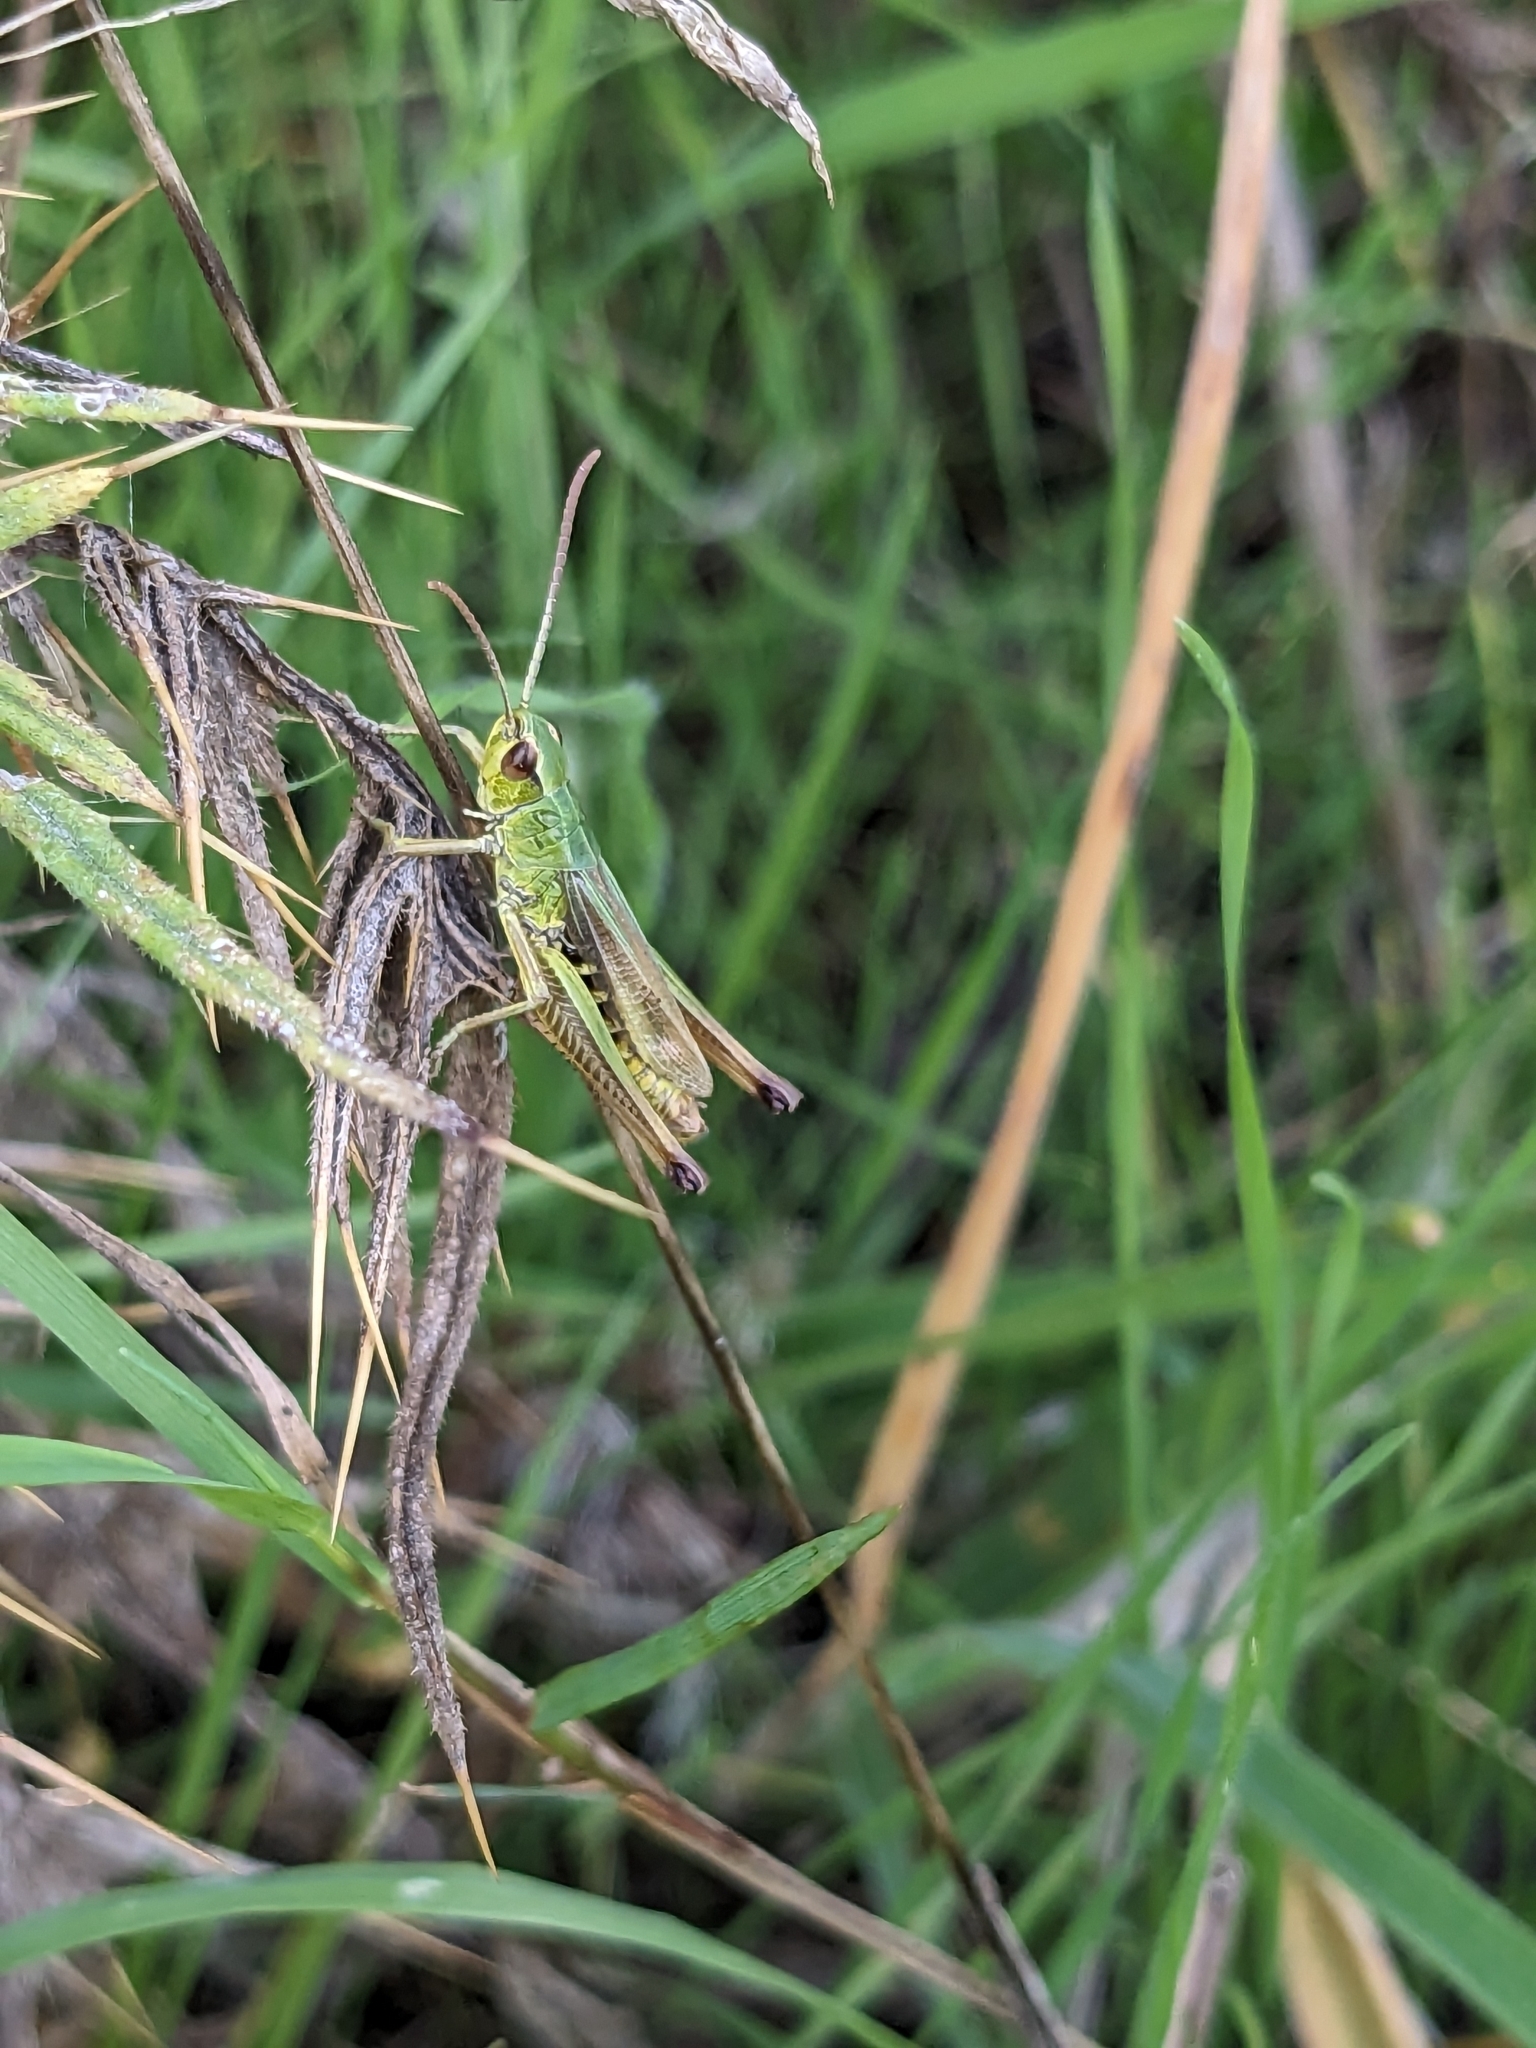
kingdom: Animalia
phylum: Arthropoda
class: Insecta
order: Orthoptera
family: Acrididae
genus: Pseudochorthippus
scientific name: Pseudochorthippus parallelus
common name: Meadow grasshopper
